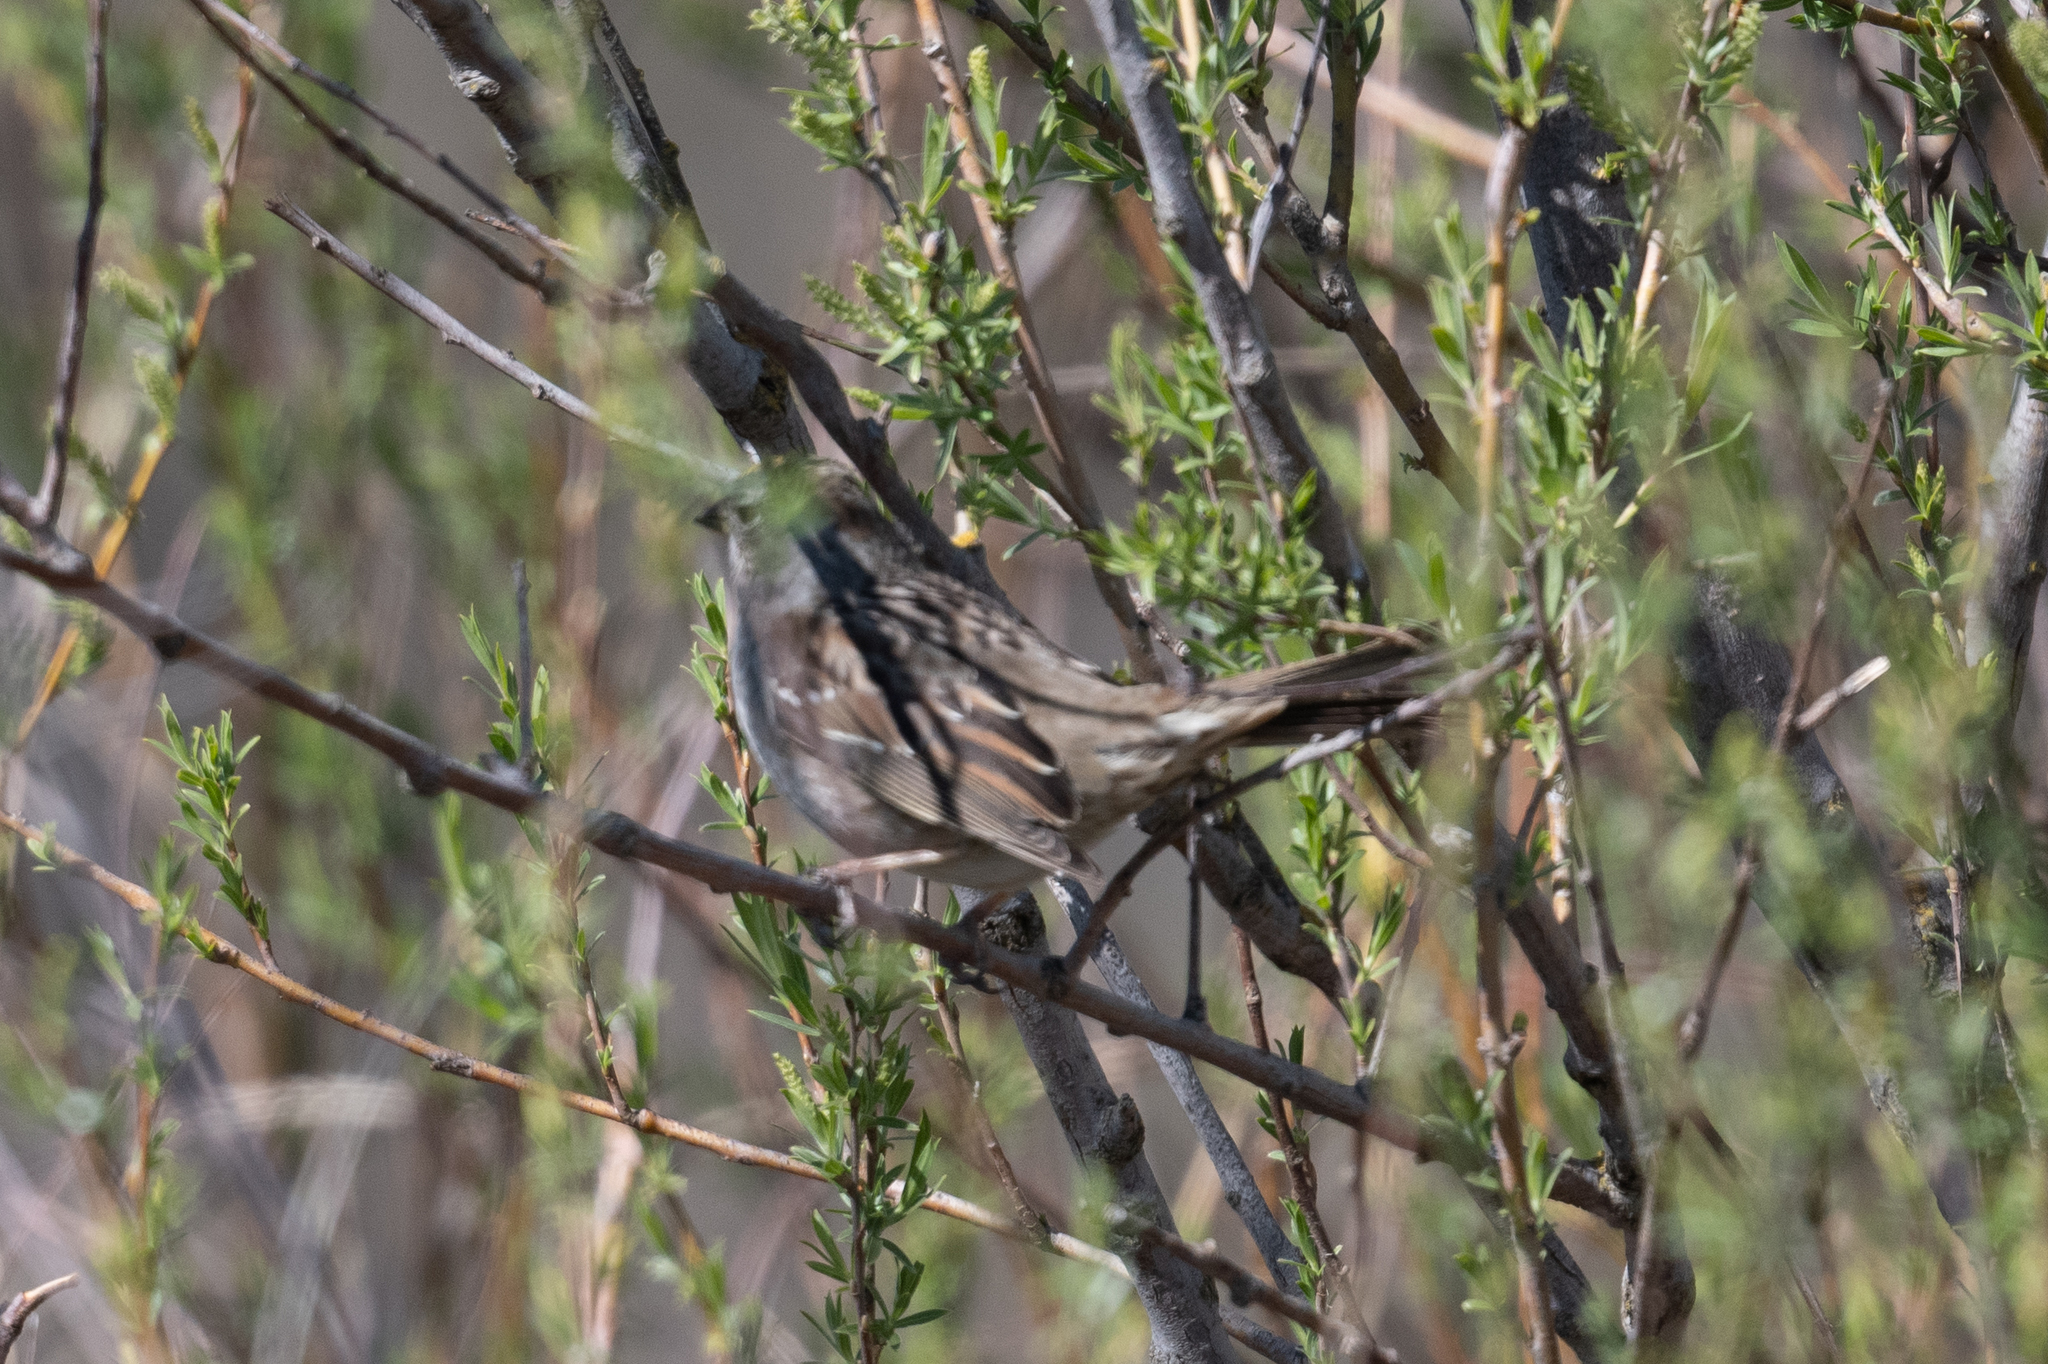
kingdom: Animalia
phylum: Chordata
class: Aves
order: Passeriformes
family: Passerellidae
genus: Zonotrichia
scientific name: Zonotrichia atricapilla
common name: Golden-crowned sparrow
